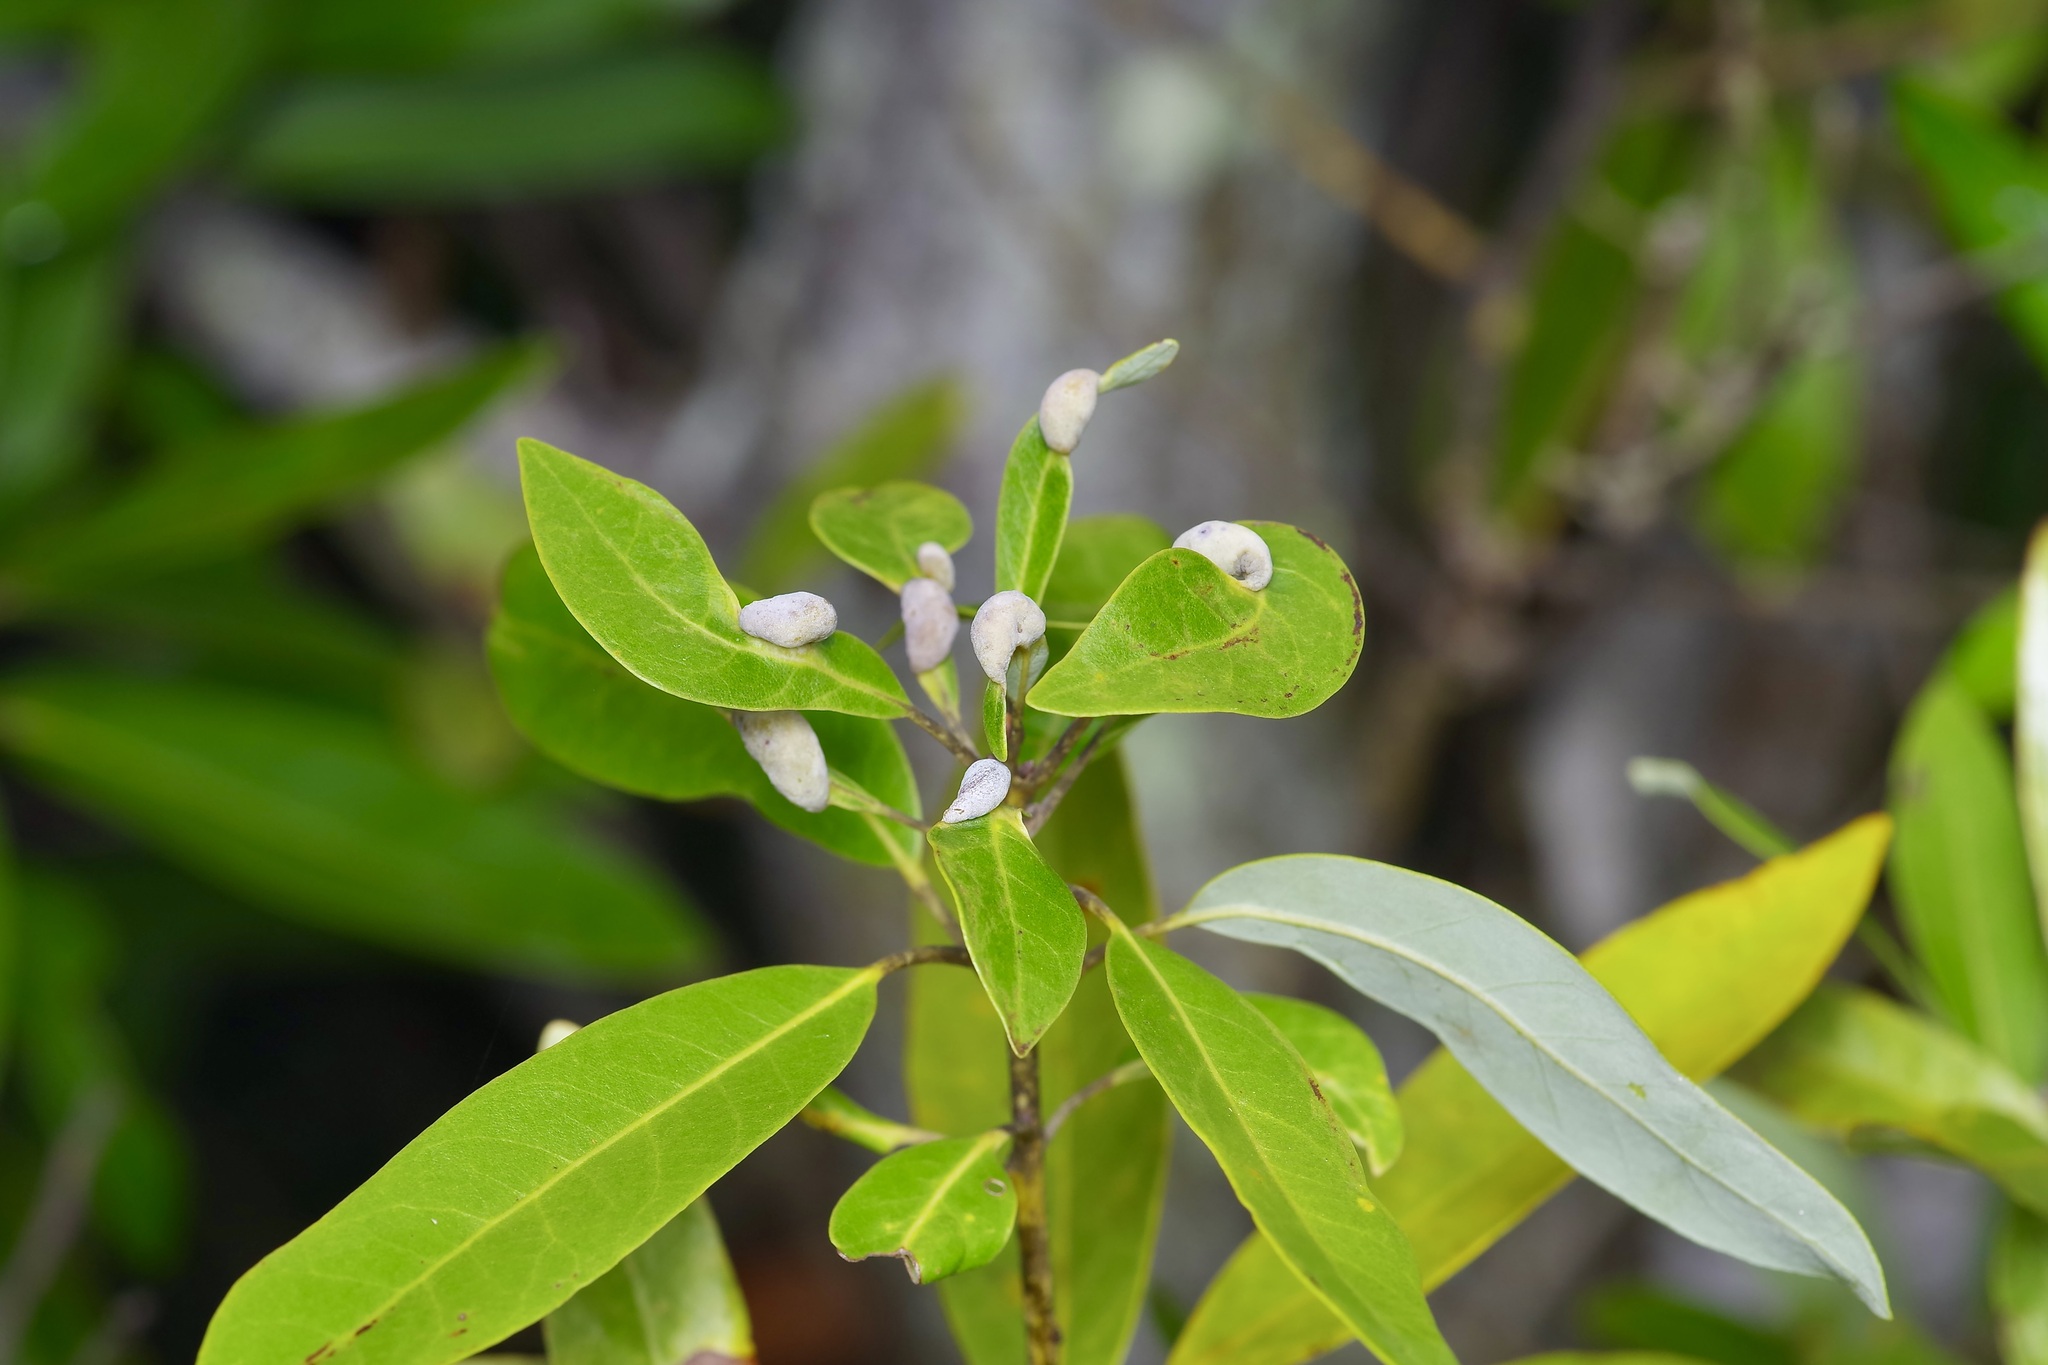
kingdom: Plantae
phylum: Tracheophyta
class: Magnoliopsida
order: Laurales
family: Lauraceae
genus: Persea
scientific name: Persea borbonia
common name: Redbay
